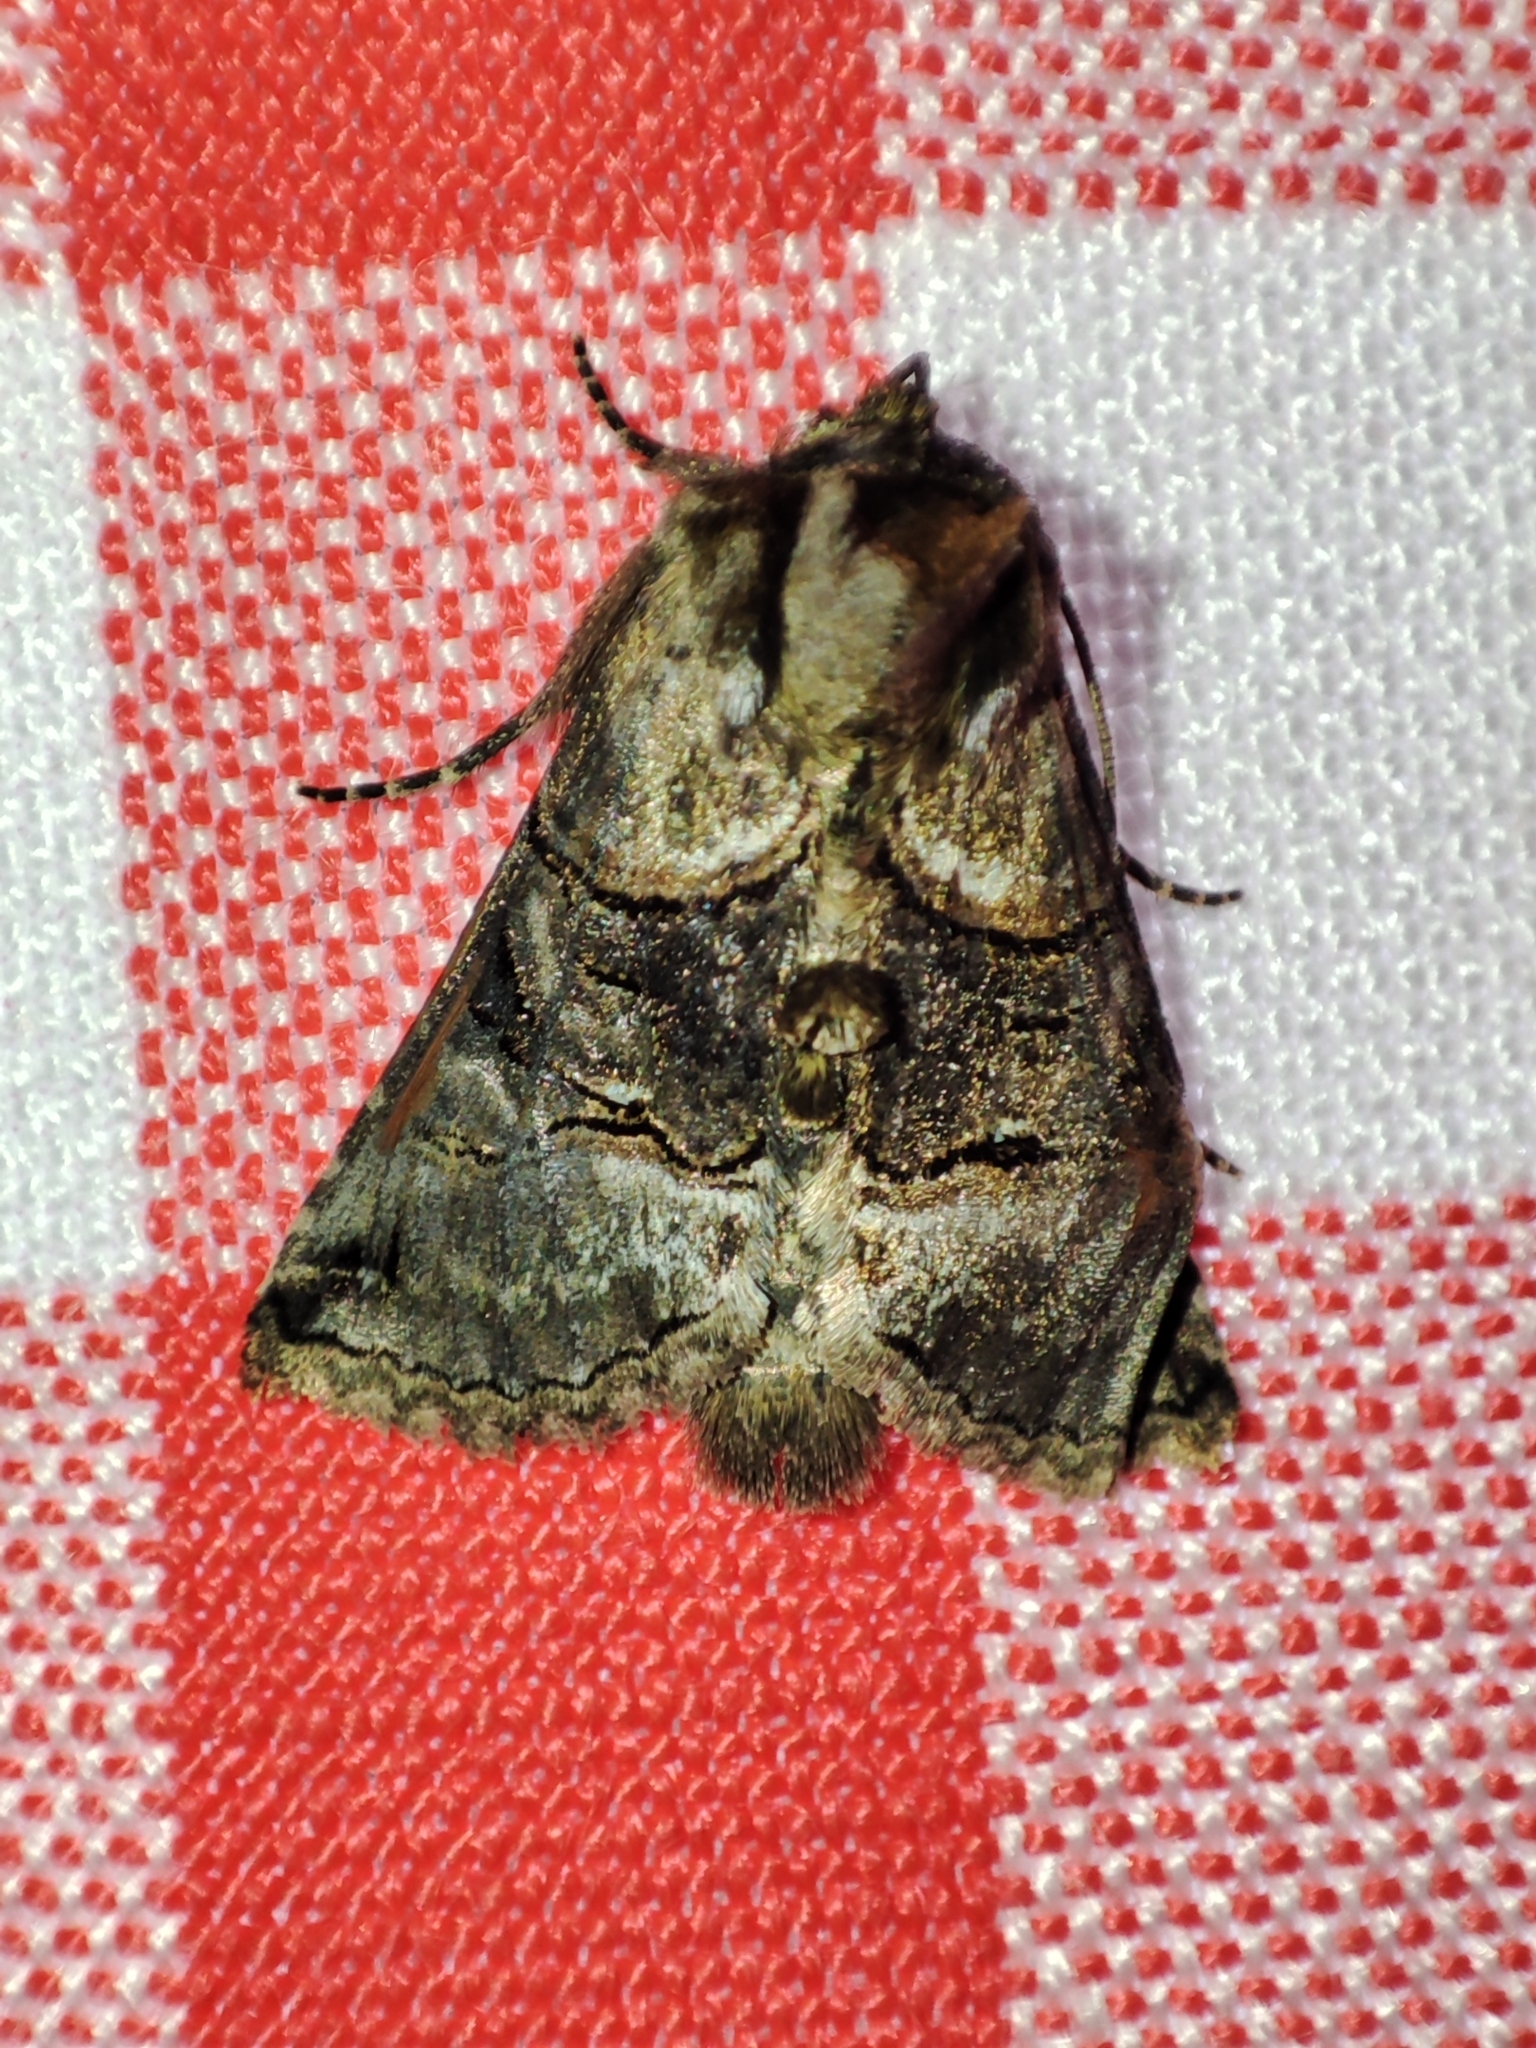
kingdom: Animalia
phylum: Arthropoda
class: Insecta
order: Lepidoptera
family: Noctuidae
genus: Abrostola
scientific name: Abrostola tripartita
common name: Spectacle
